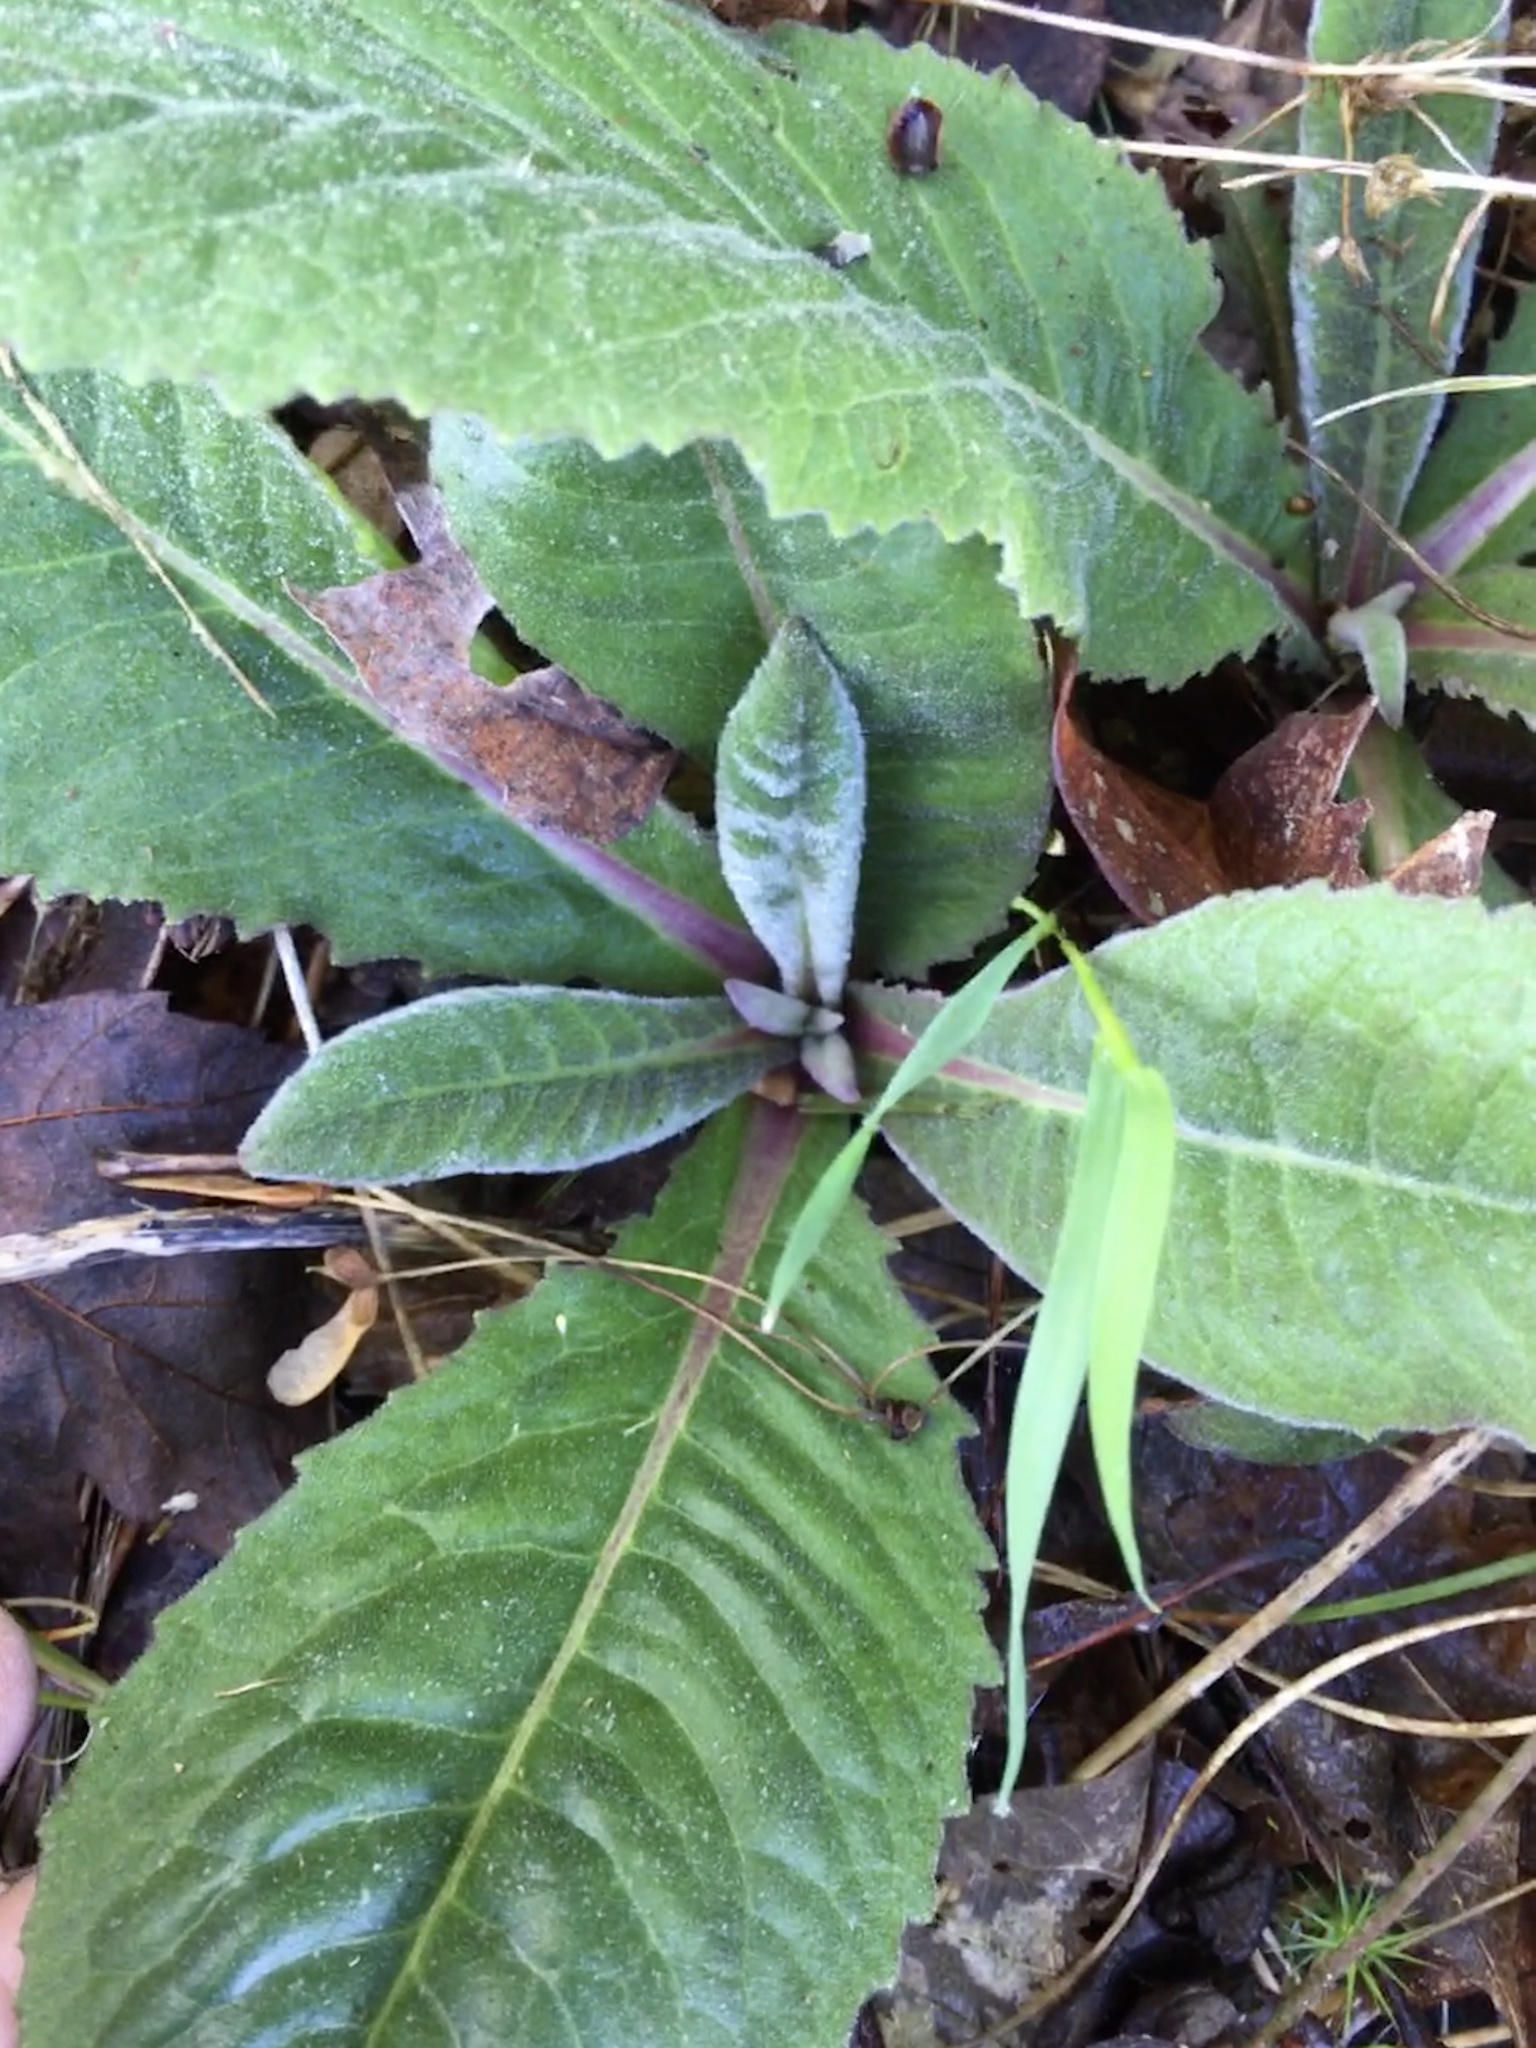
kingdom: Plantae
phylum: Tracheophyta
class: Magnoliopsida
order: Asterales
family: Asteraceae
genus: Vernonia
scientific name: Vernonia acaulis
